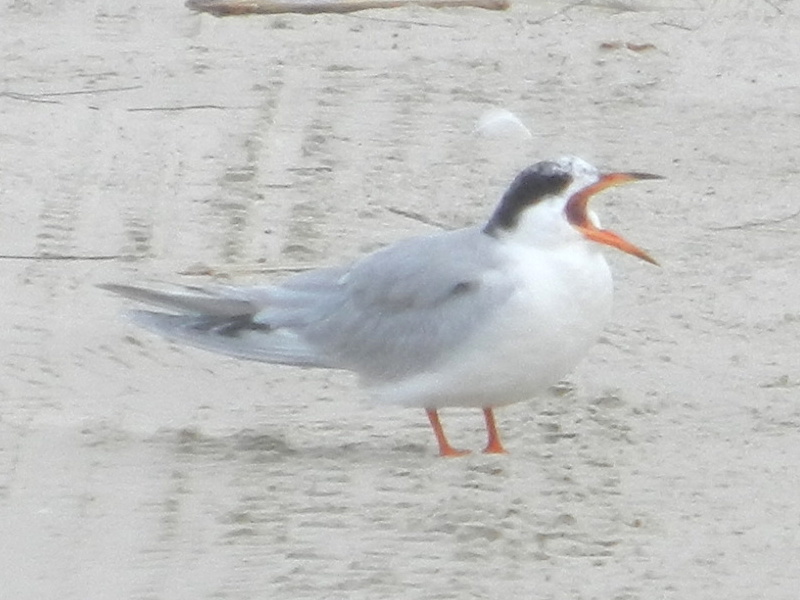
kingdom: Animalia
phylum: Chordata
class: Aves
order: Charadriiformes
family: Laridae
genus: Sterna
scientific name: Sterna forsteri
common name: Forster's tern
